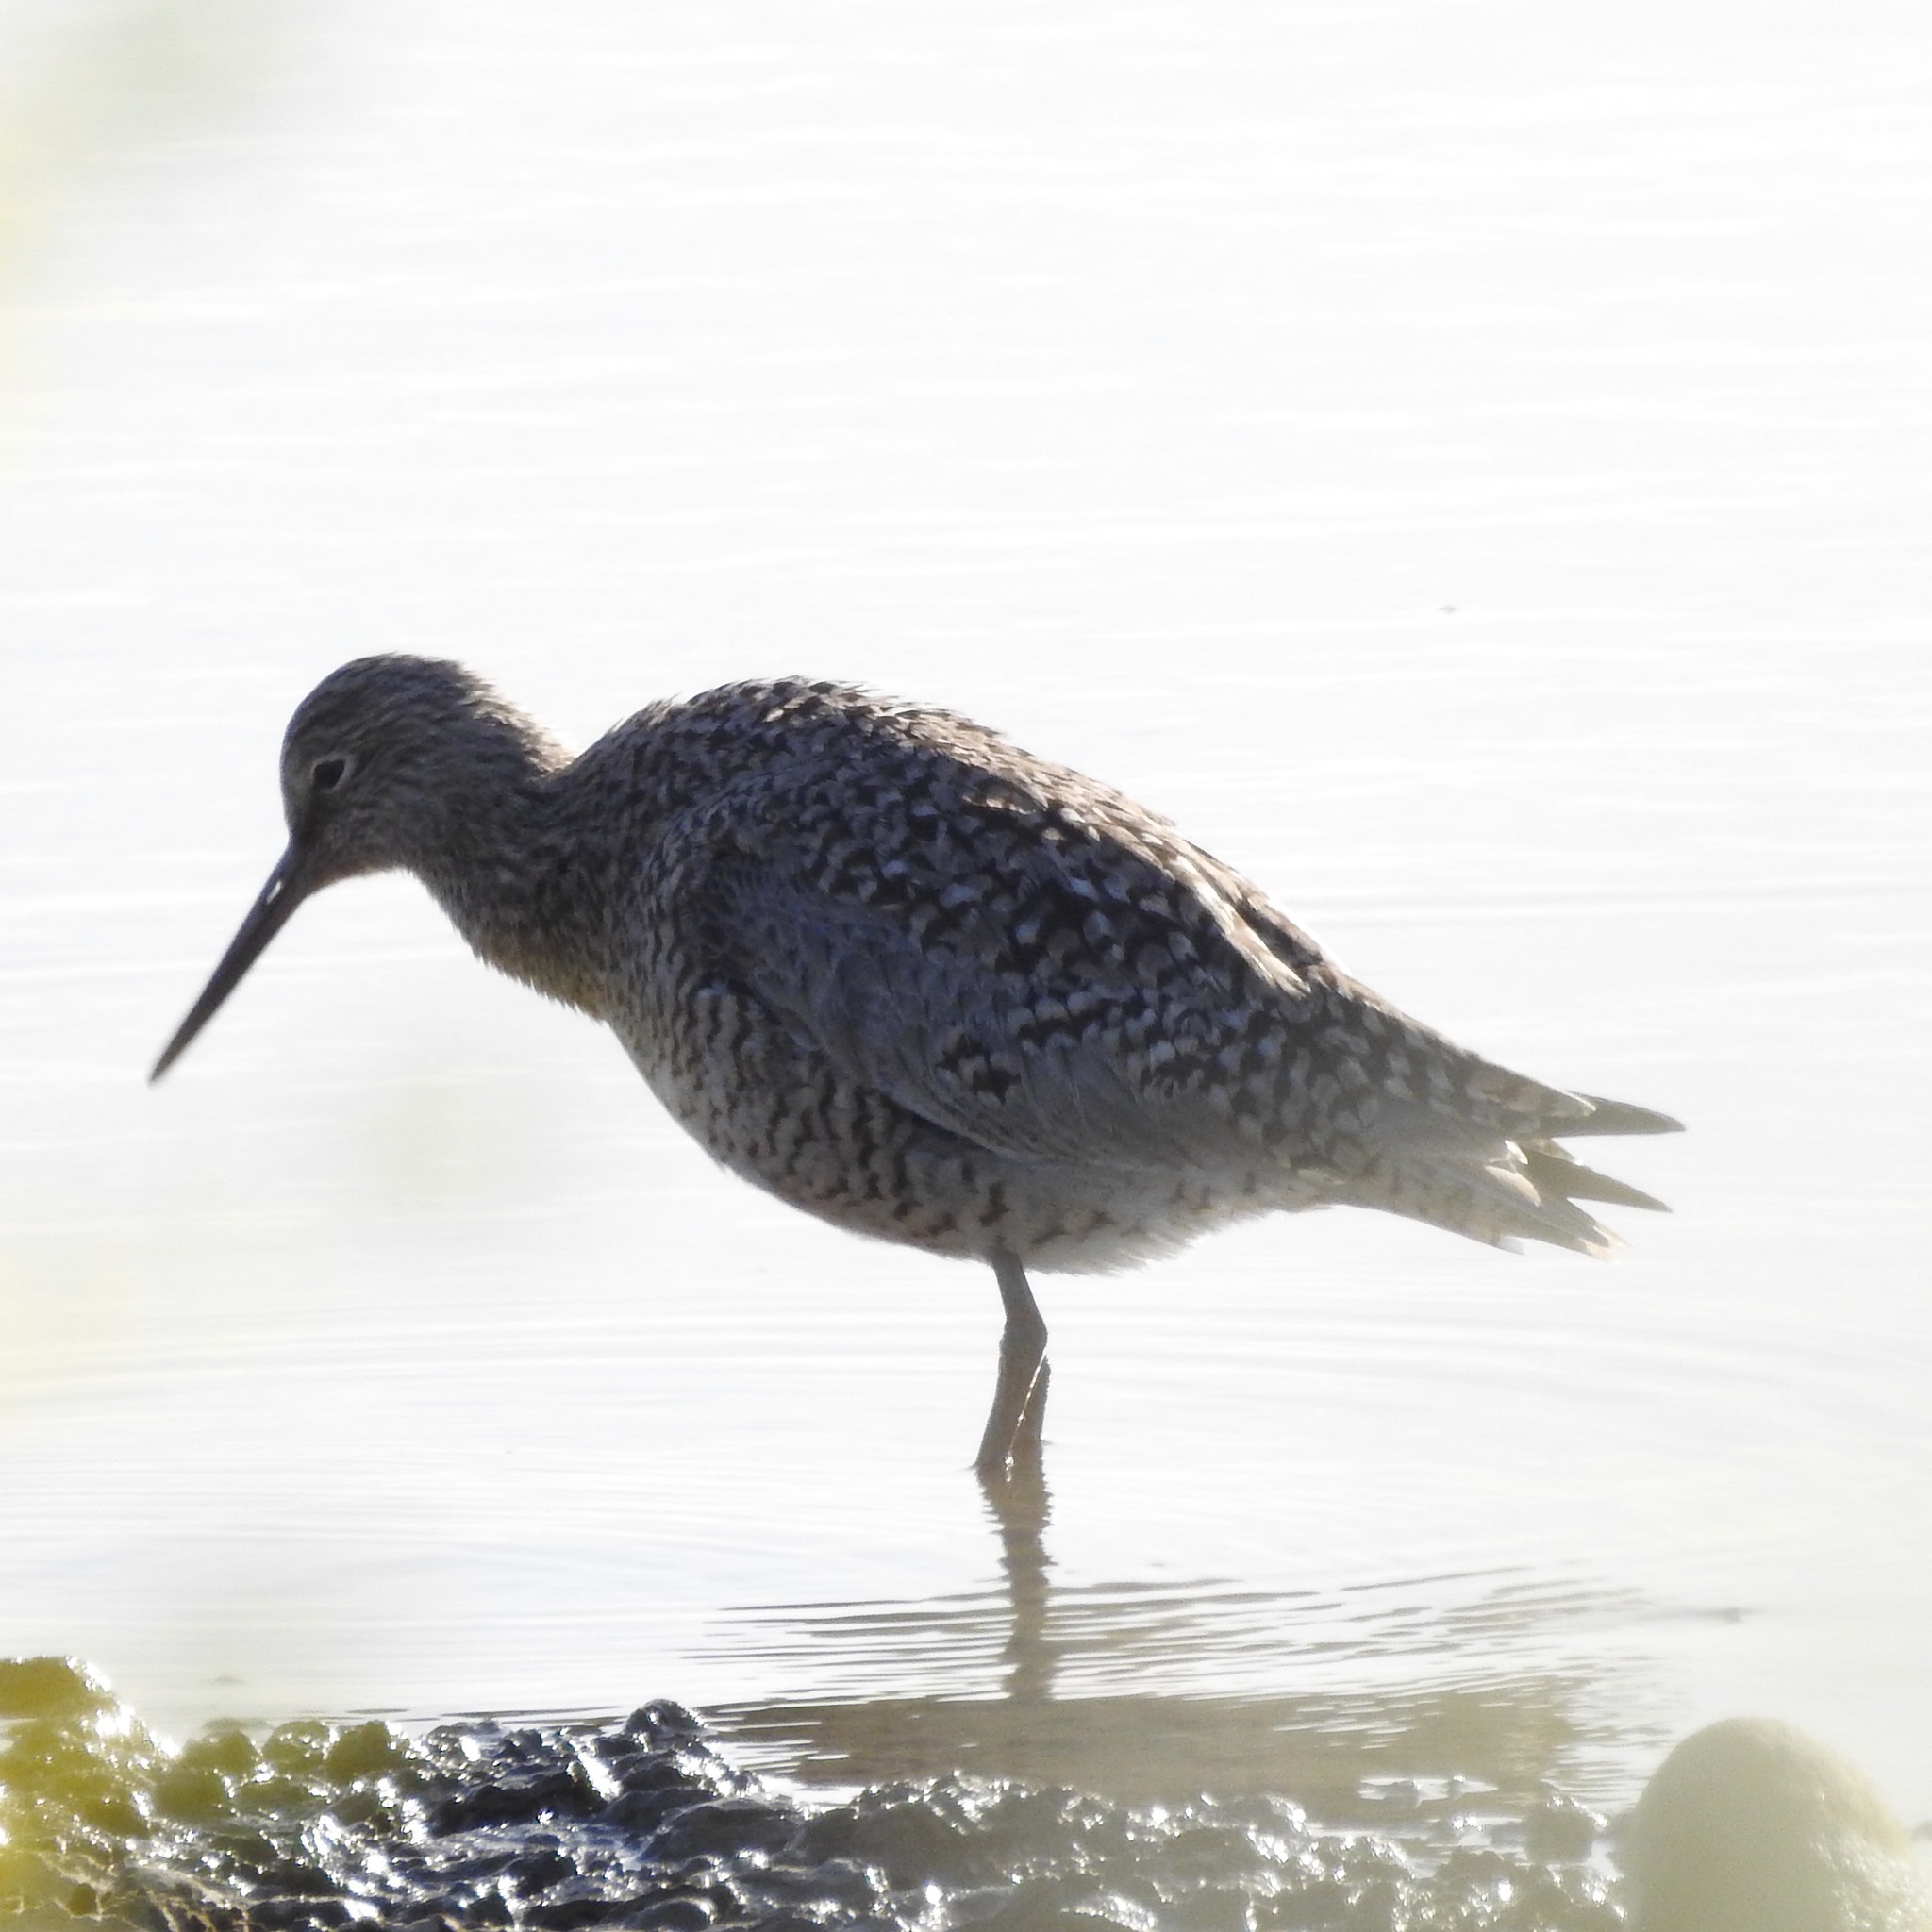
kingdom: Animalia
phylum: Chordata
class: Aves
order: Charadriiformes
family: Scolopacidae
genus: Tringa
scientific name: Tringa semipalmata
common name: Willet
